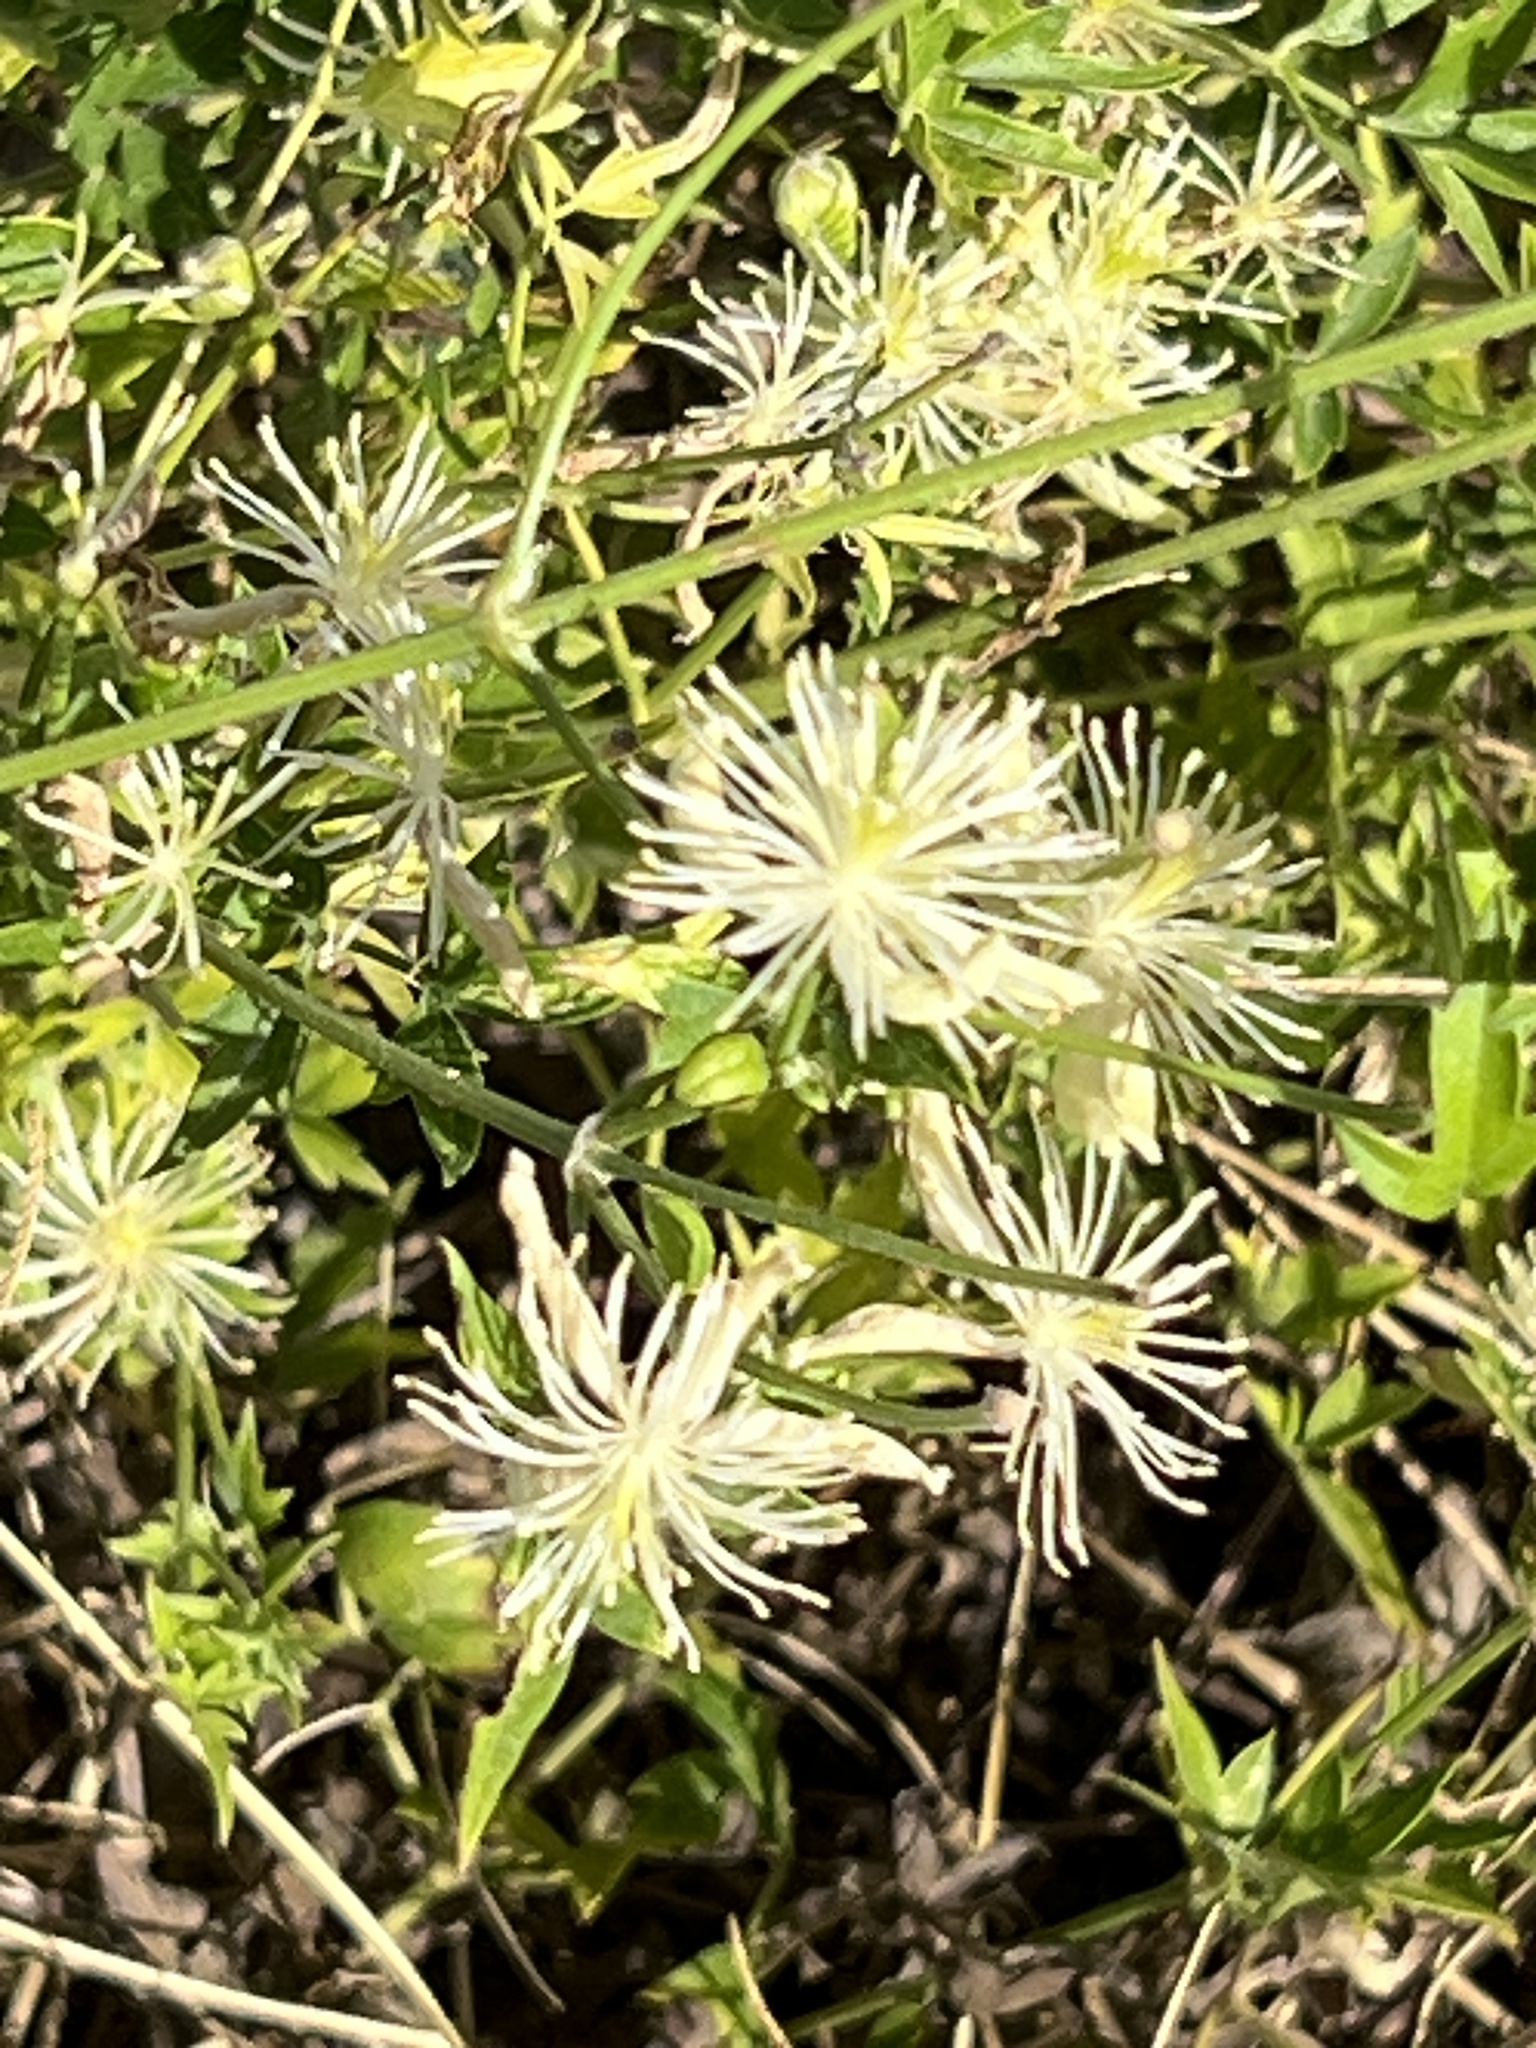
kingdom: Plantae
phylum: Tracheophyta
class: Magnoliopsida
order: Ranunculales
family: Ranunculaceae
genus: Clematis
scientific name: Clematis drummondii
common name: Texas virgin's bower
